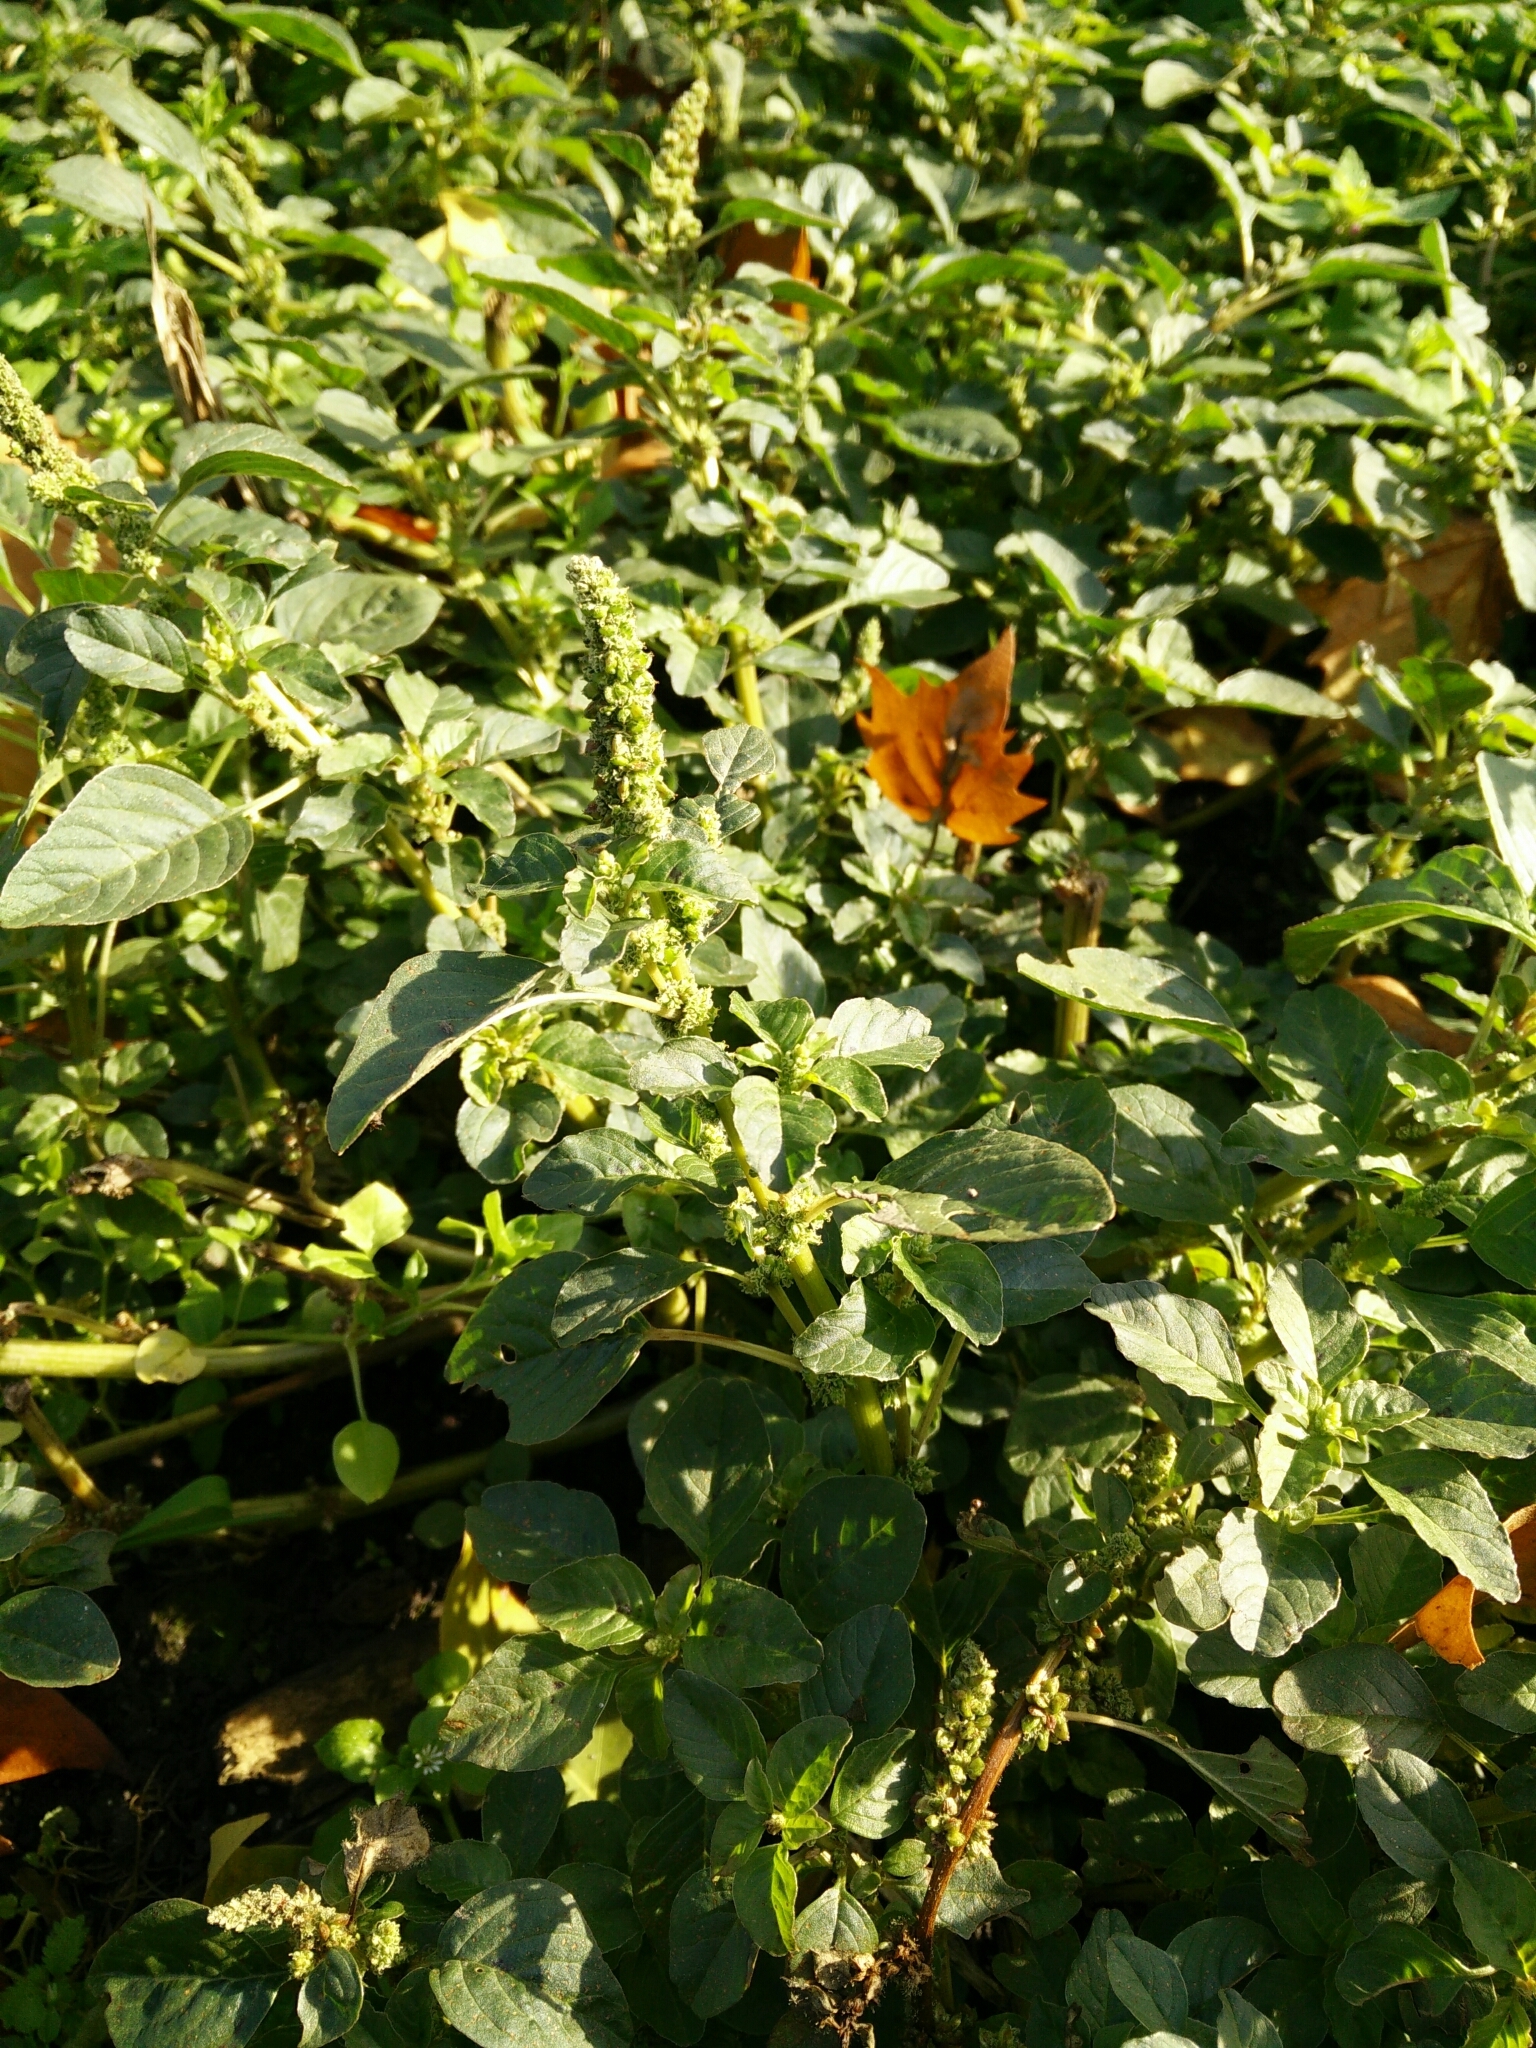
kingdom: Plantae
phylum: Tracheophyta
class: Magnoliopsida
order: Caryophyllales
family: Amaranthaceae
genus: Amaranthus
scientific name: Amaranthus viridis
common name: Slender amaranth
